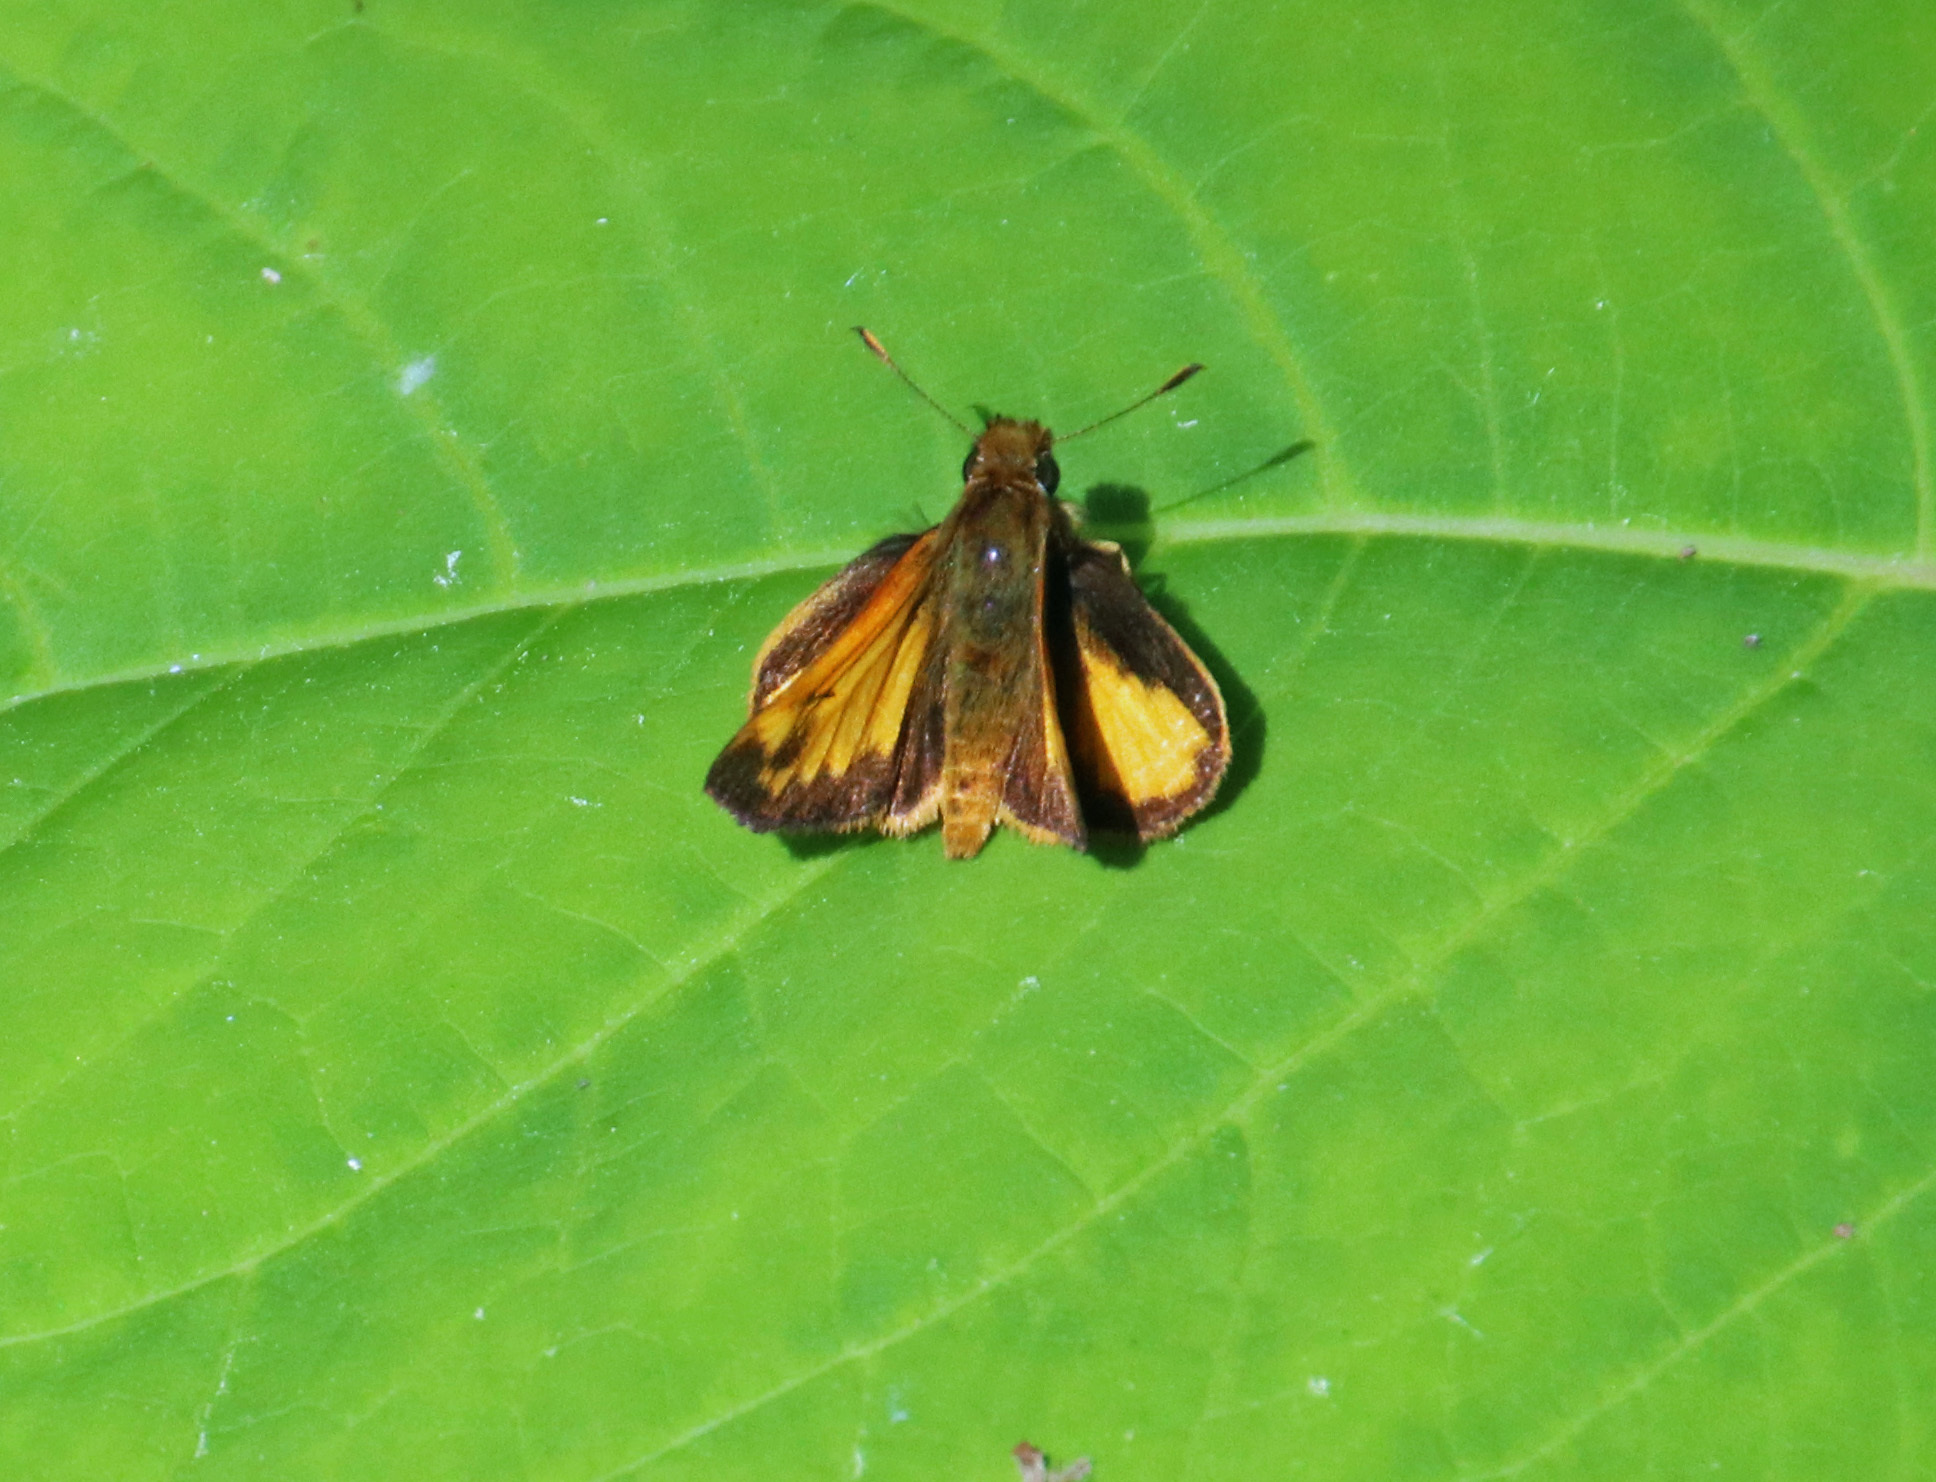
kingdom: Animalia
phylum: Arthropoda
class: Insecta
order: Lepidoptera
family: Hesperiidae
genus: Lon
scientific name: Lon zabulon
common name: Zabulon skipper
